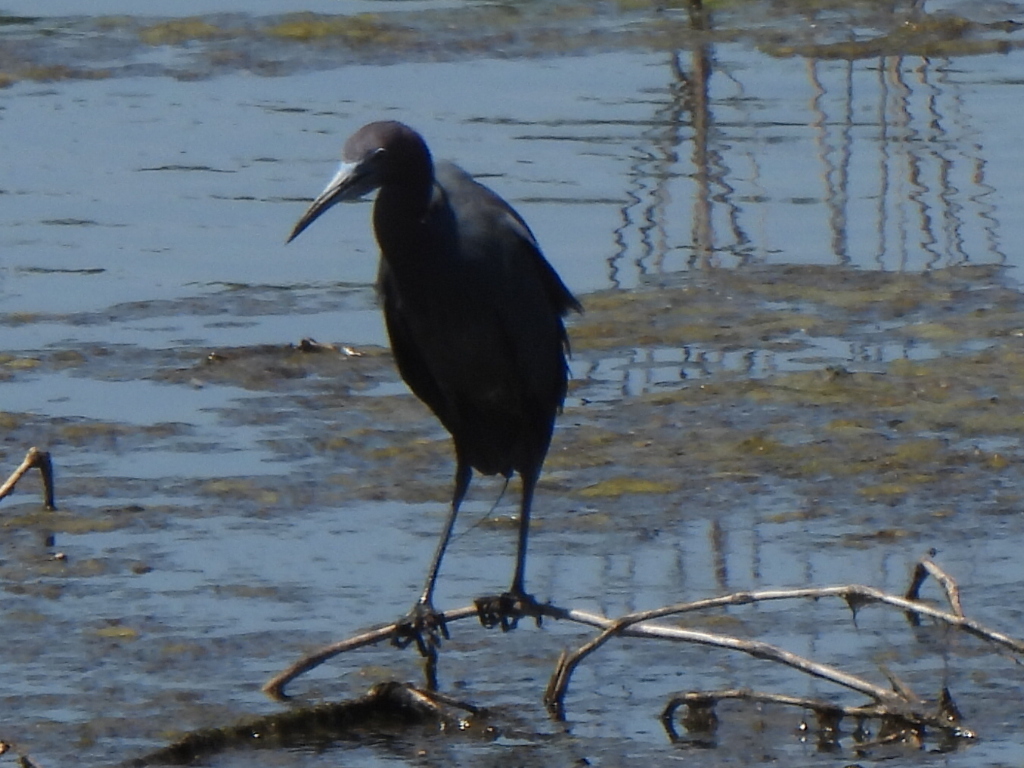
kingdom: Animalia
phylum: Chordata
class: Aves
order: Pelecaniformes
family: Ardeidae
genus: Egretta
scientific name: Egretta caerulea
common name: Little blue heron
